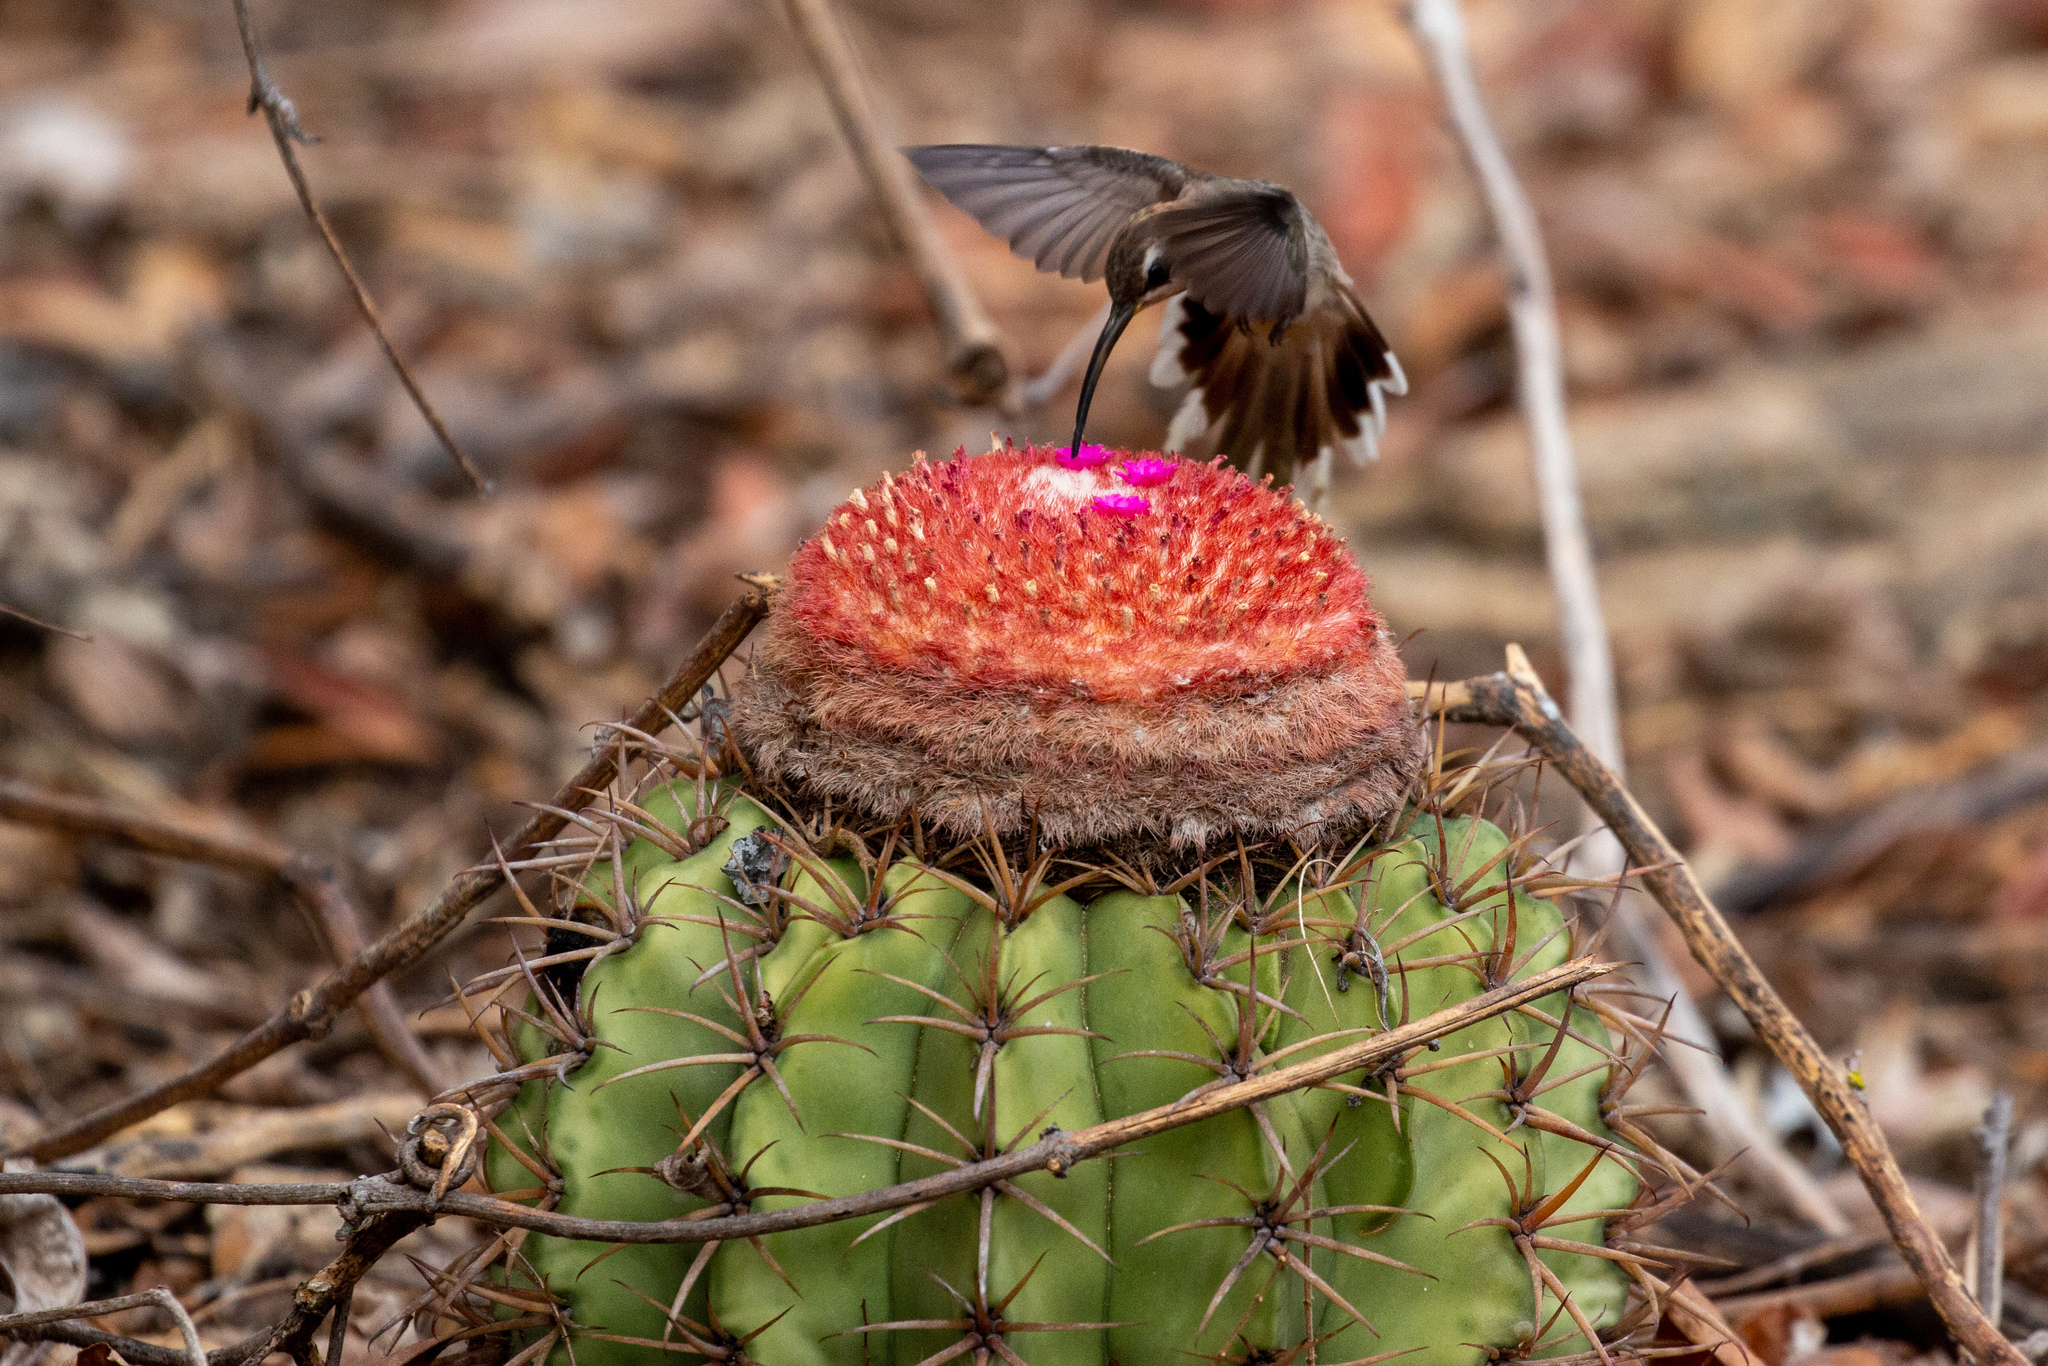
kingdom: Plantae
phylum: Tracheophyta
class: Magnoliopsida
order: Caryophyllales
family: Cactaceae
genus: Melocactus
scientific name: Melocactus zehntneri
